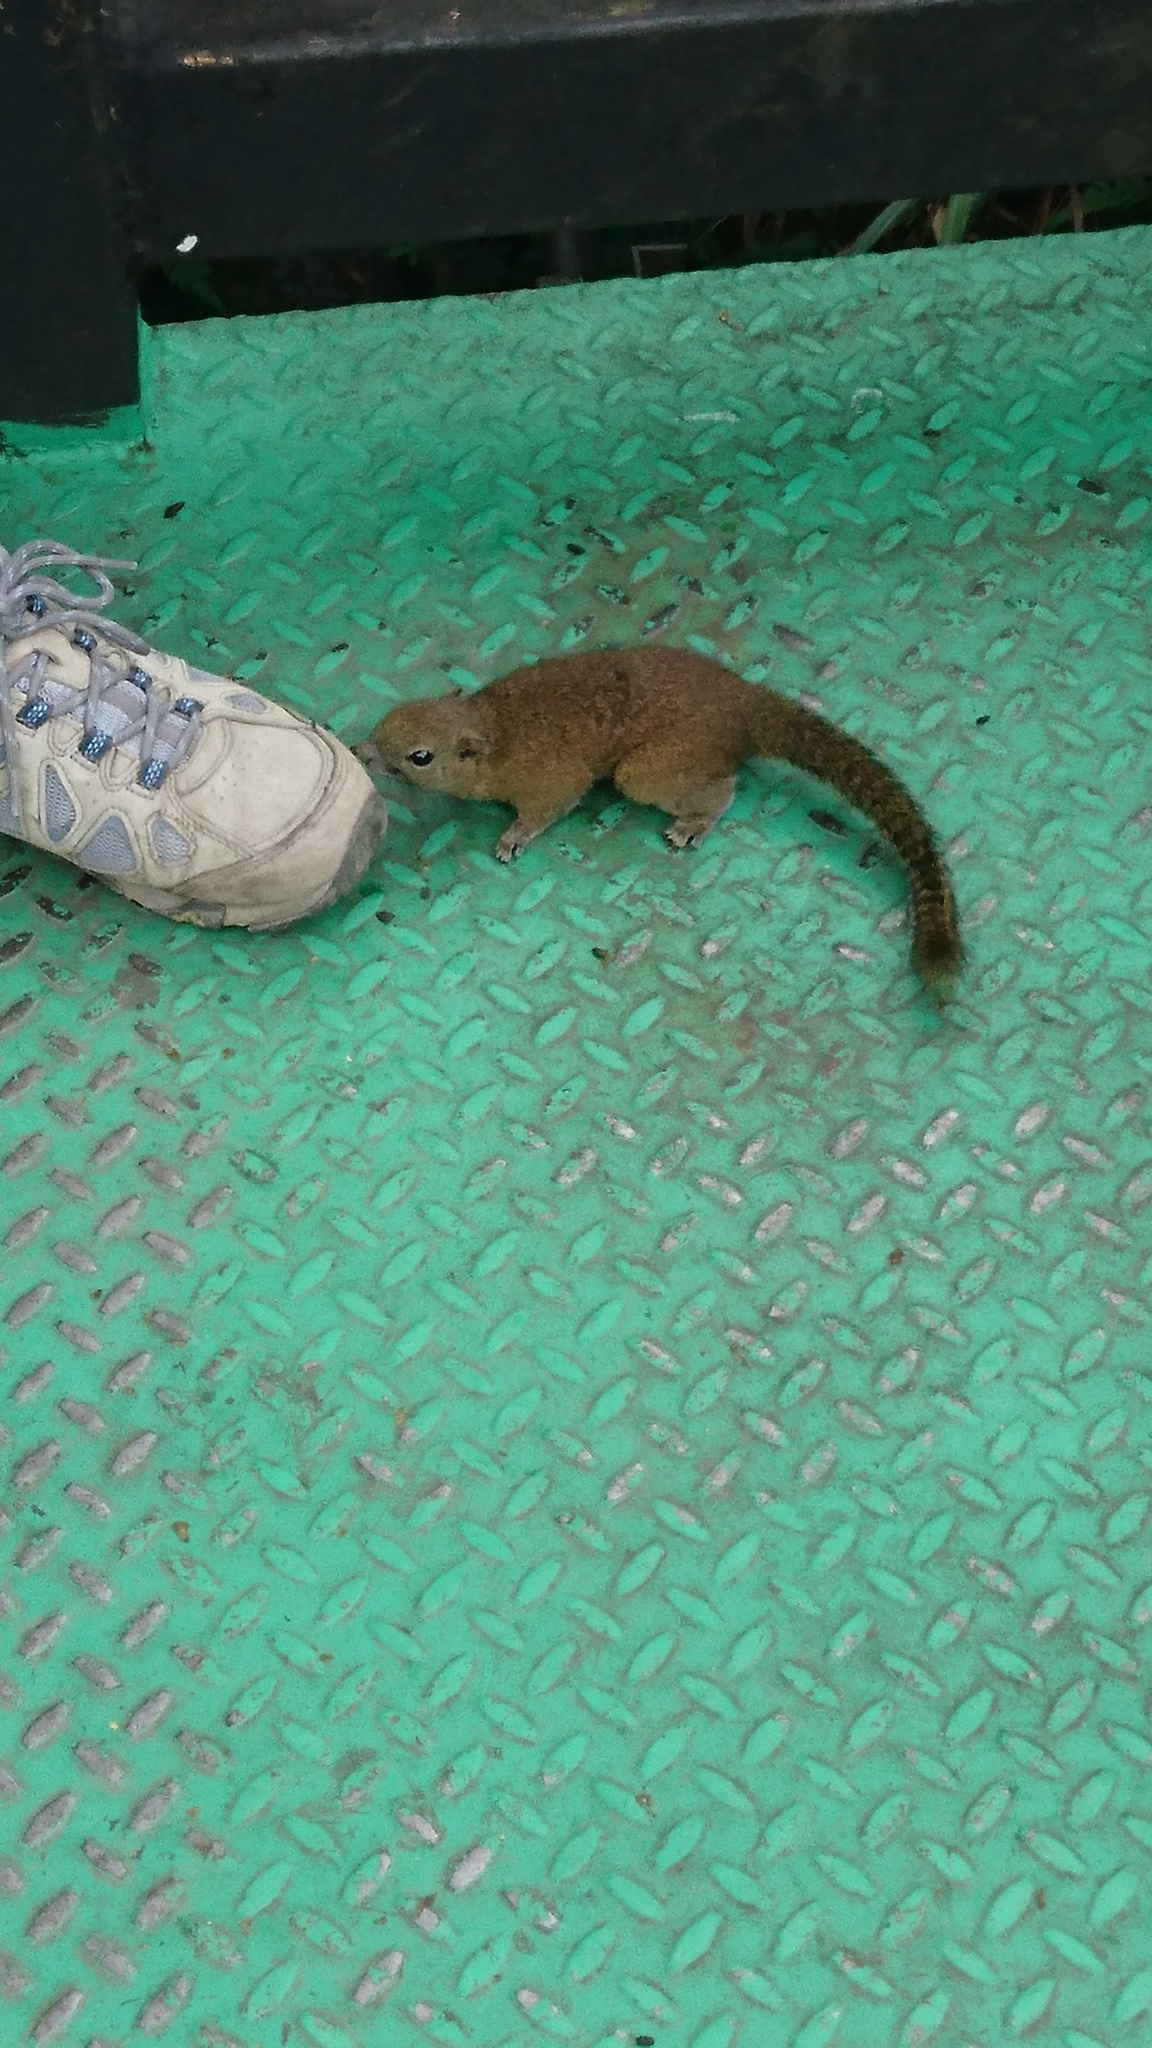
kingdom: Animalia
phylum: Chordata
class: Mammalia
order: Rodentia
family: Sciuridae
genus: Callosciurus
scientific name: Callosciurus orestes
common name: Borneo black-banded squirrel
